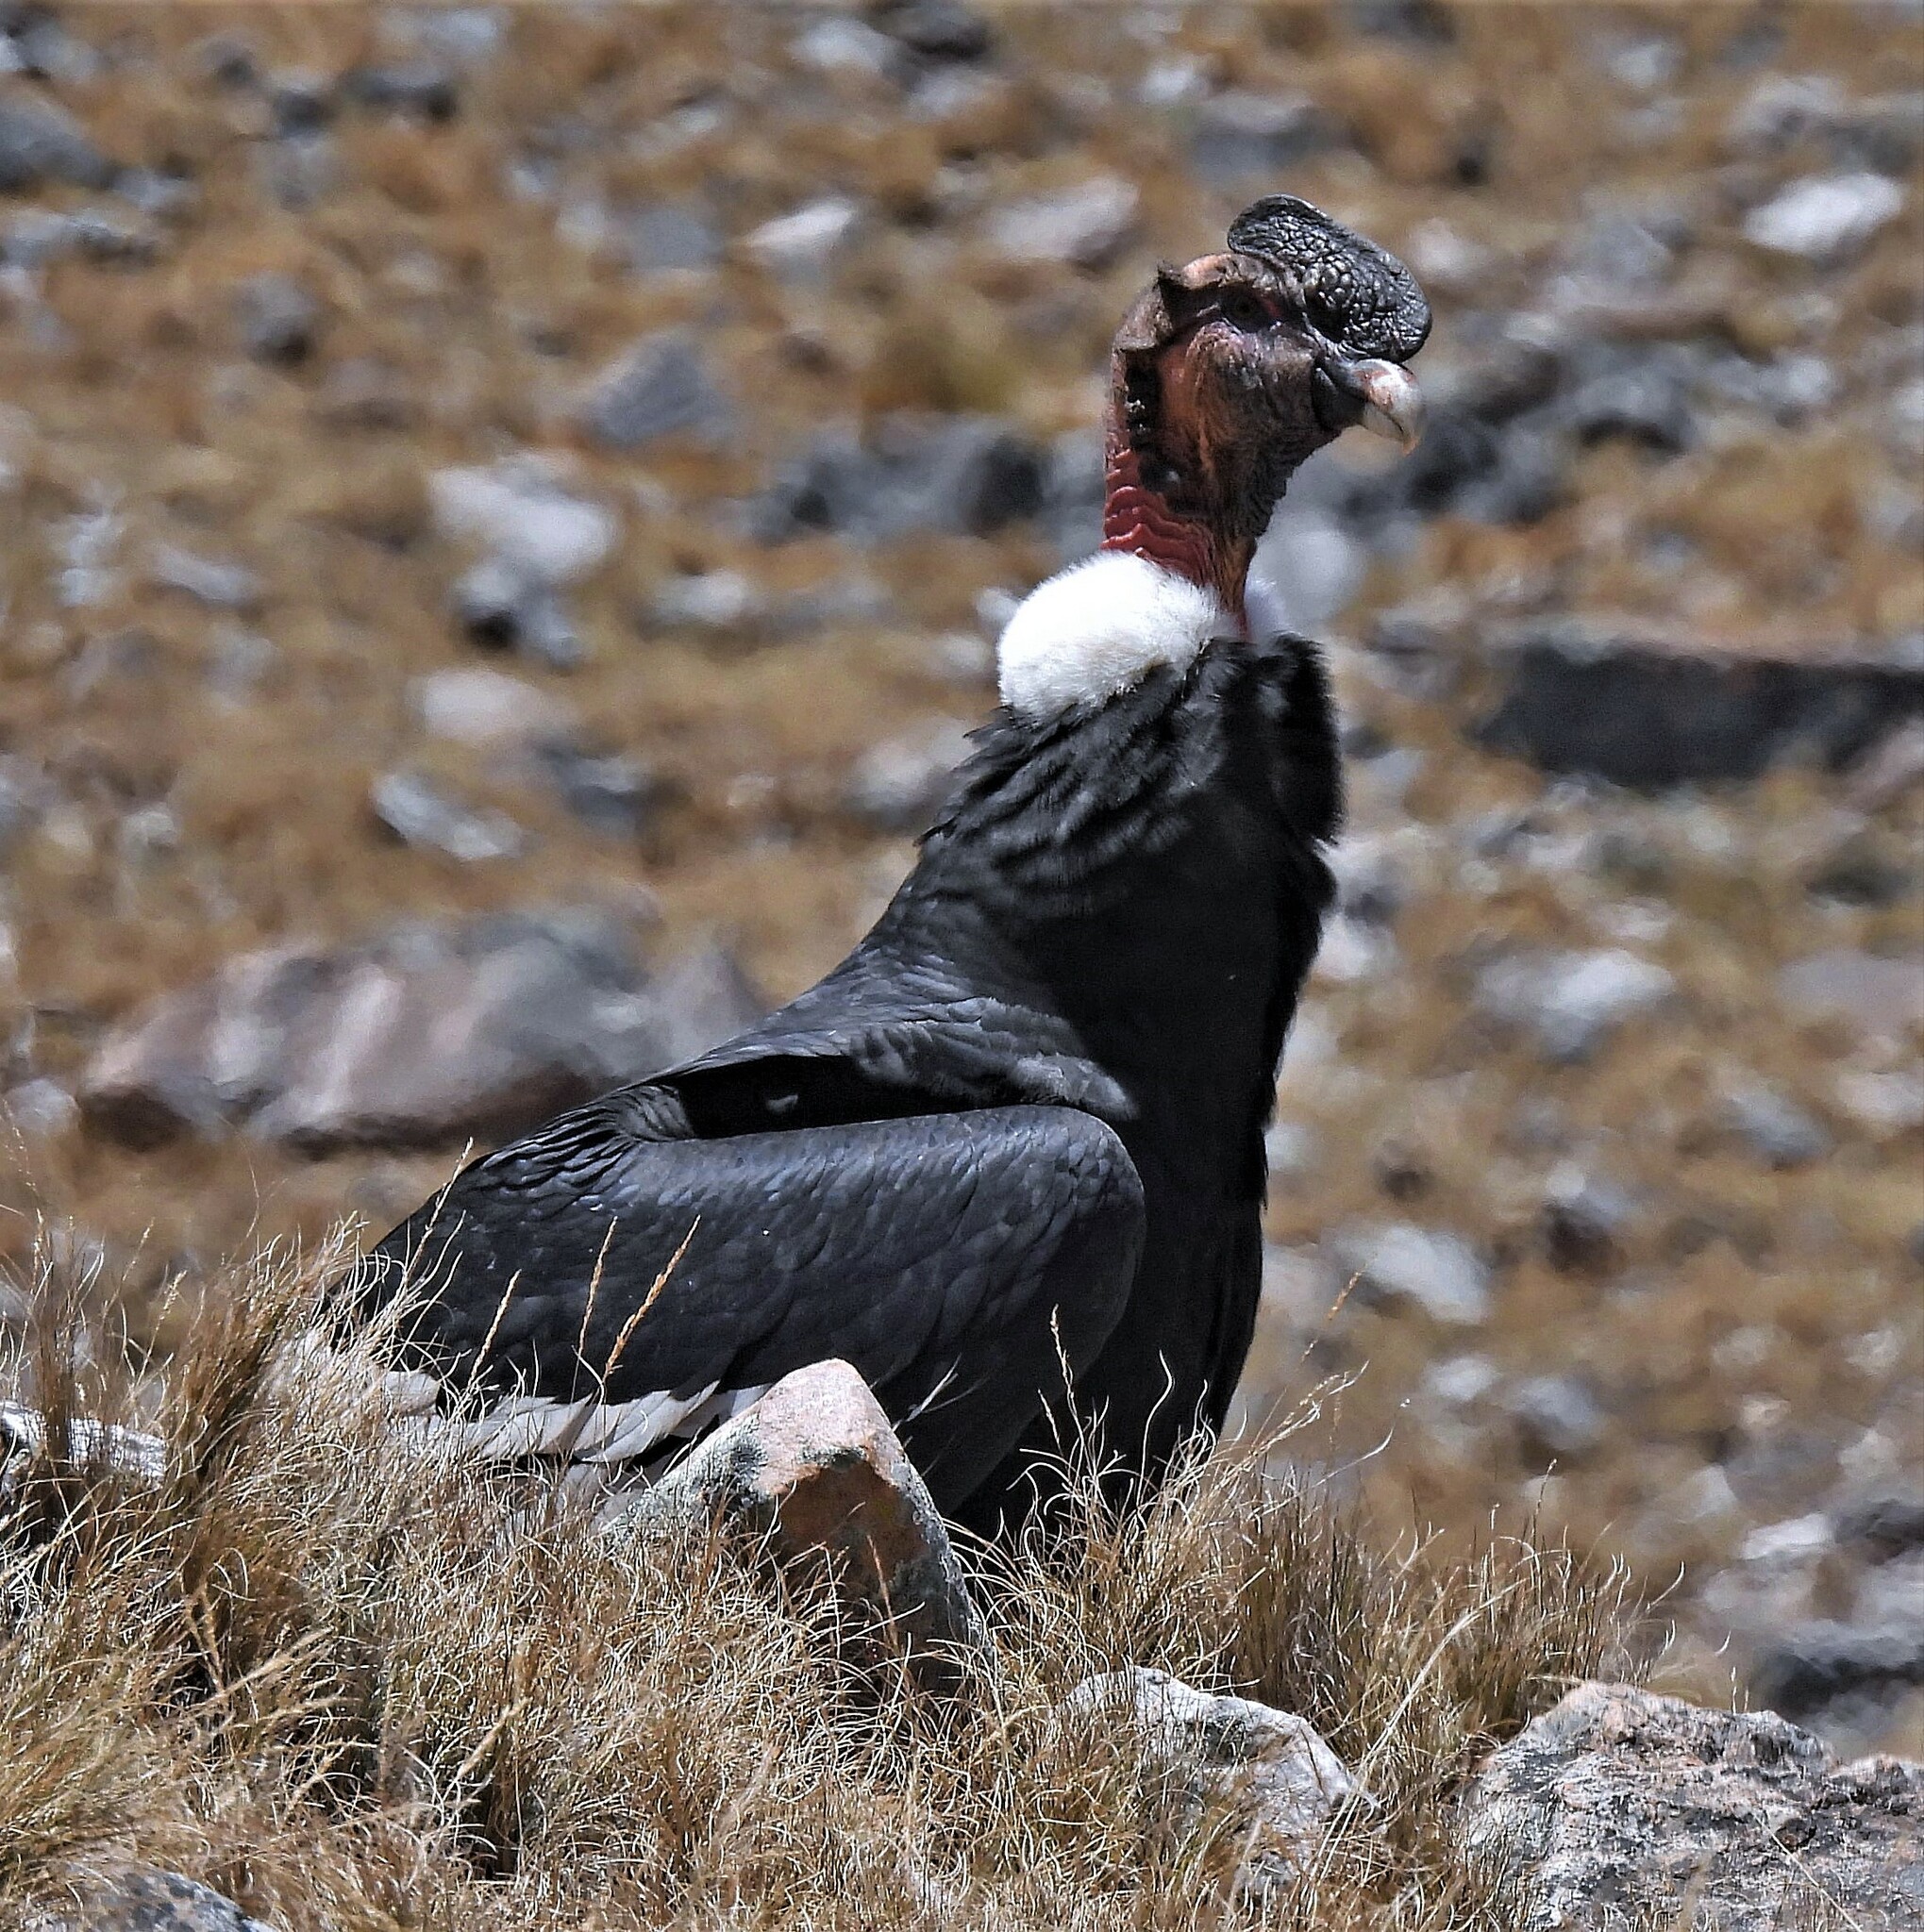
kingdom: Animalia
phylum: Chordata
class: Aves
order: Accipitriformes
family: Cathartidae
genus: Vultur
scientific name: Vultur gryphus
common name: Andean condor
